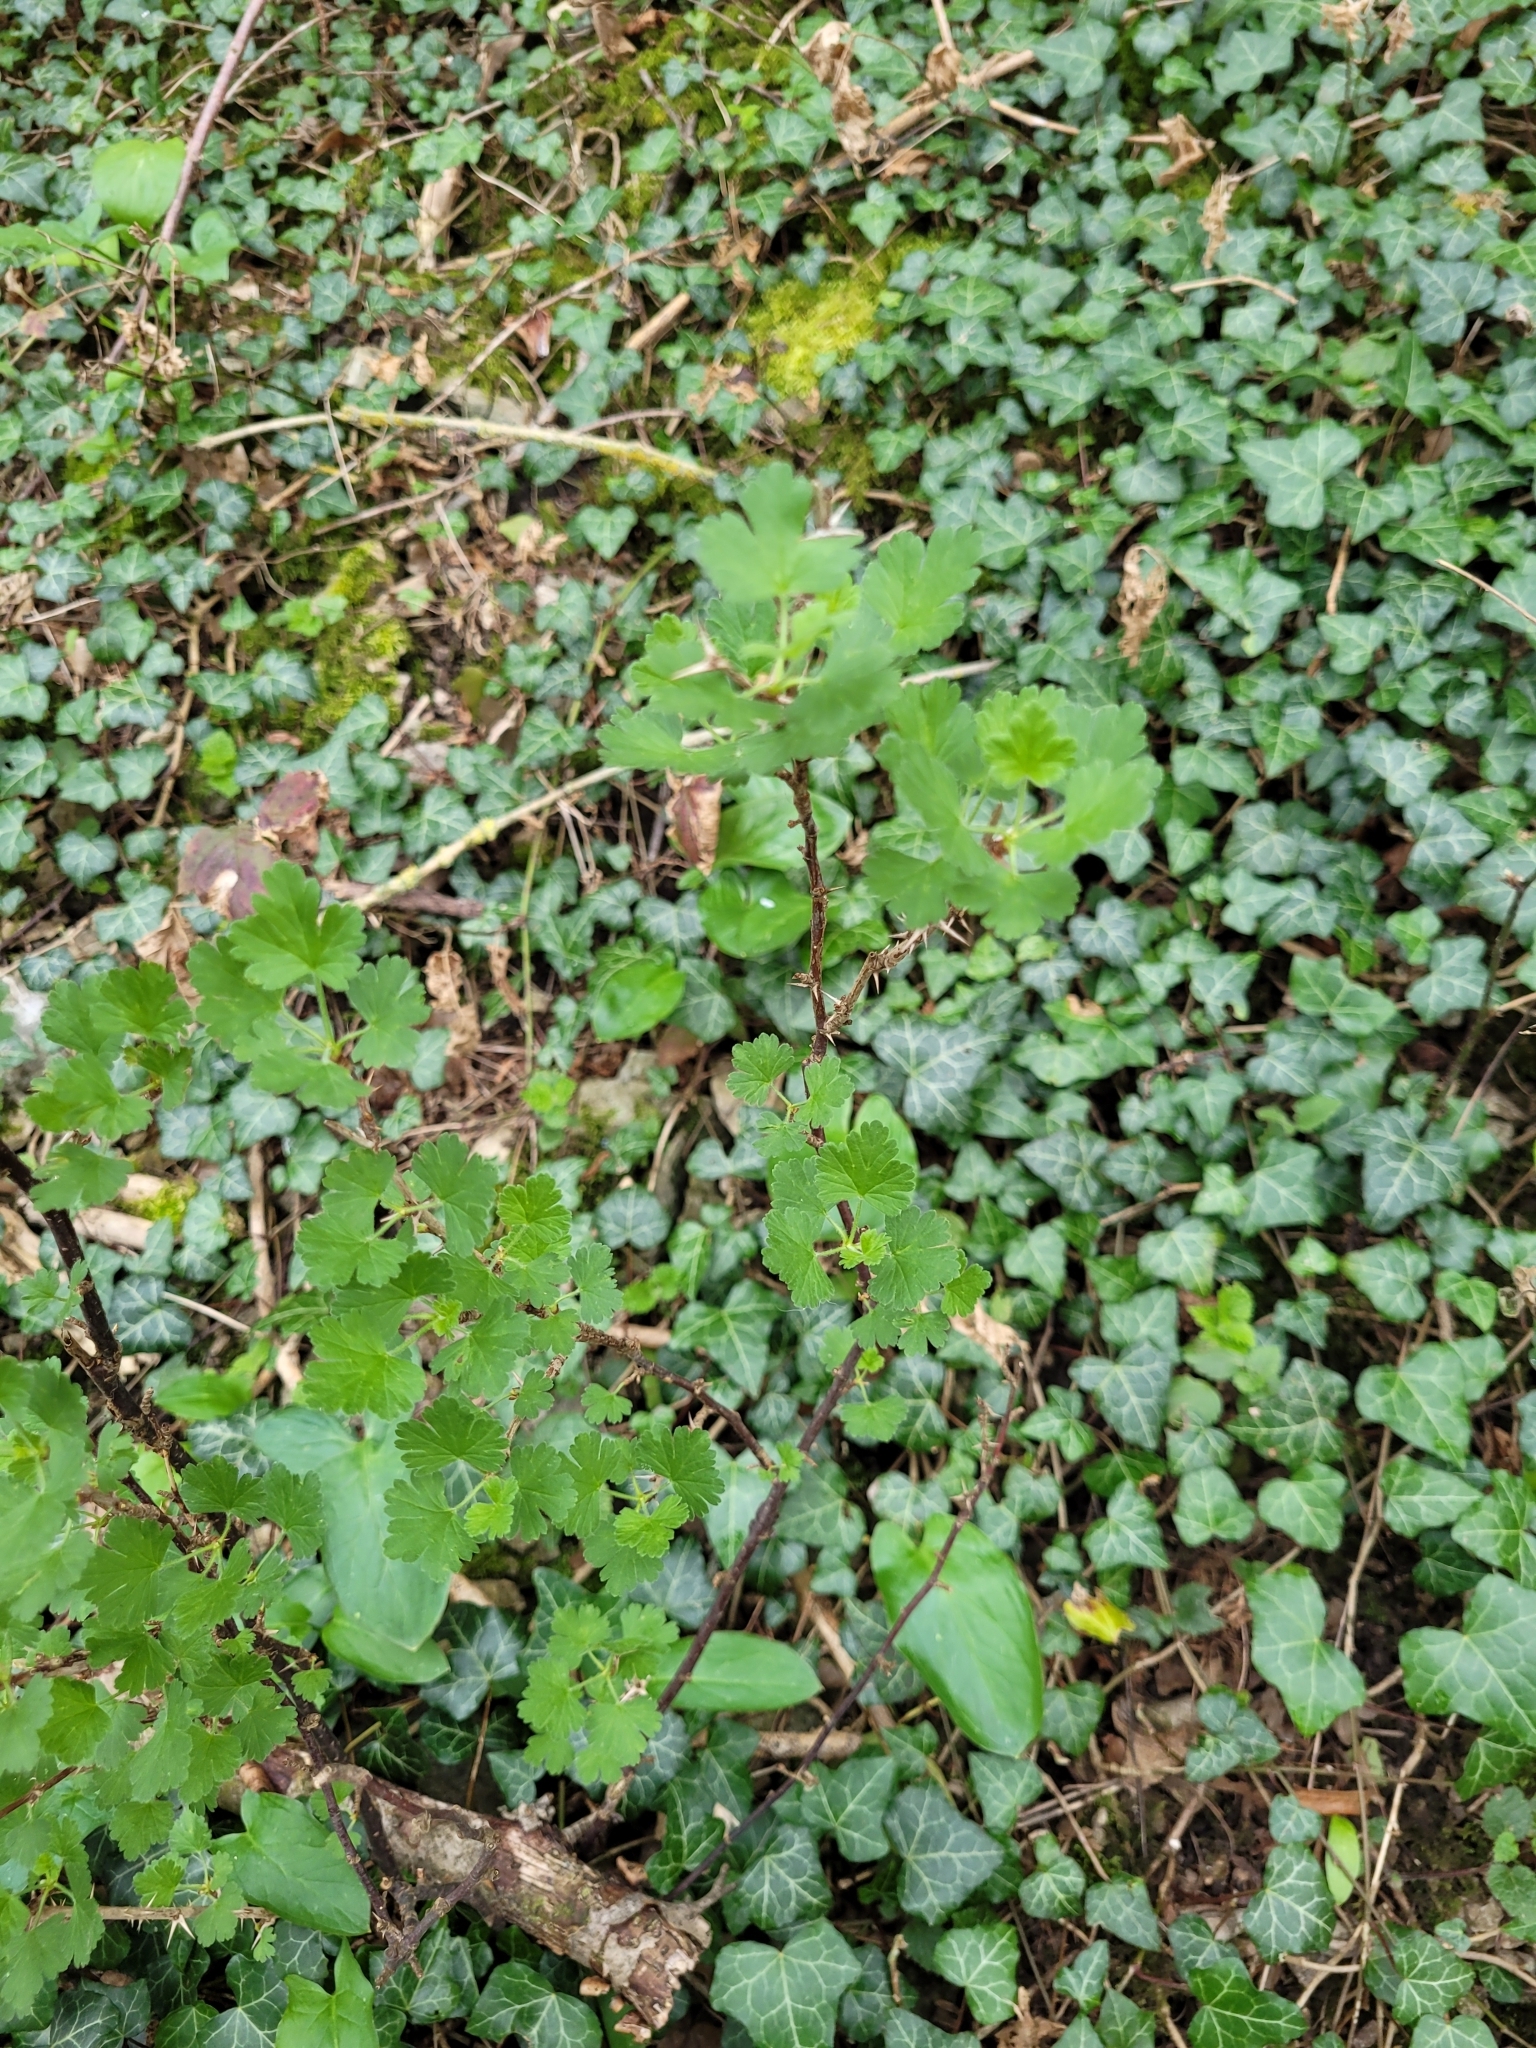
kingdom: Plantae
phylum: Tracheophyta
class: Magnoliopsida
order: Saxifragales
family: Grossulariaceae
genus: Ribes
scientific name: Ribes uva-crispa
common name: Gooseberry
